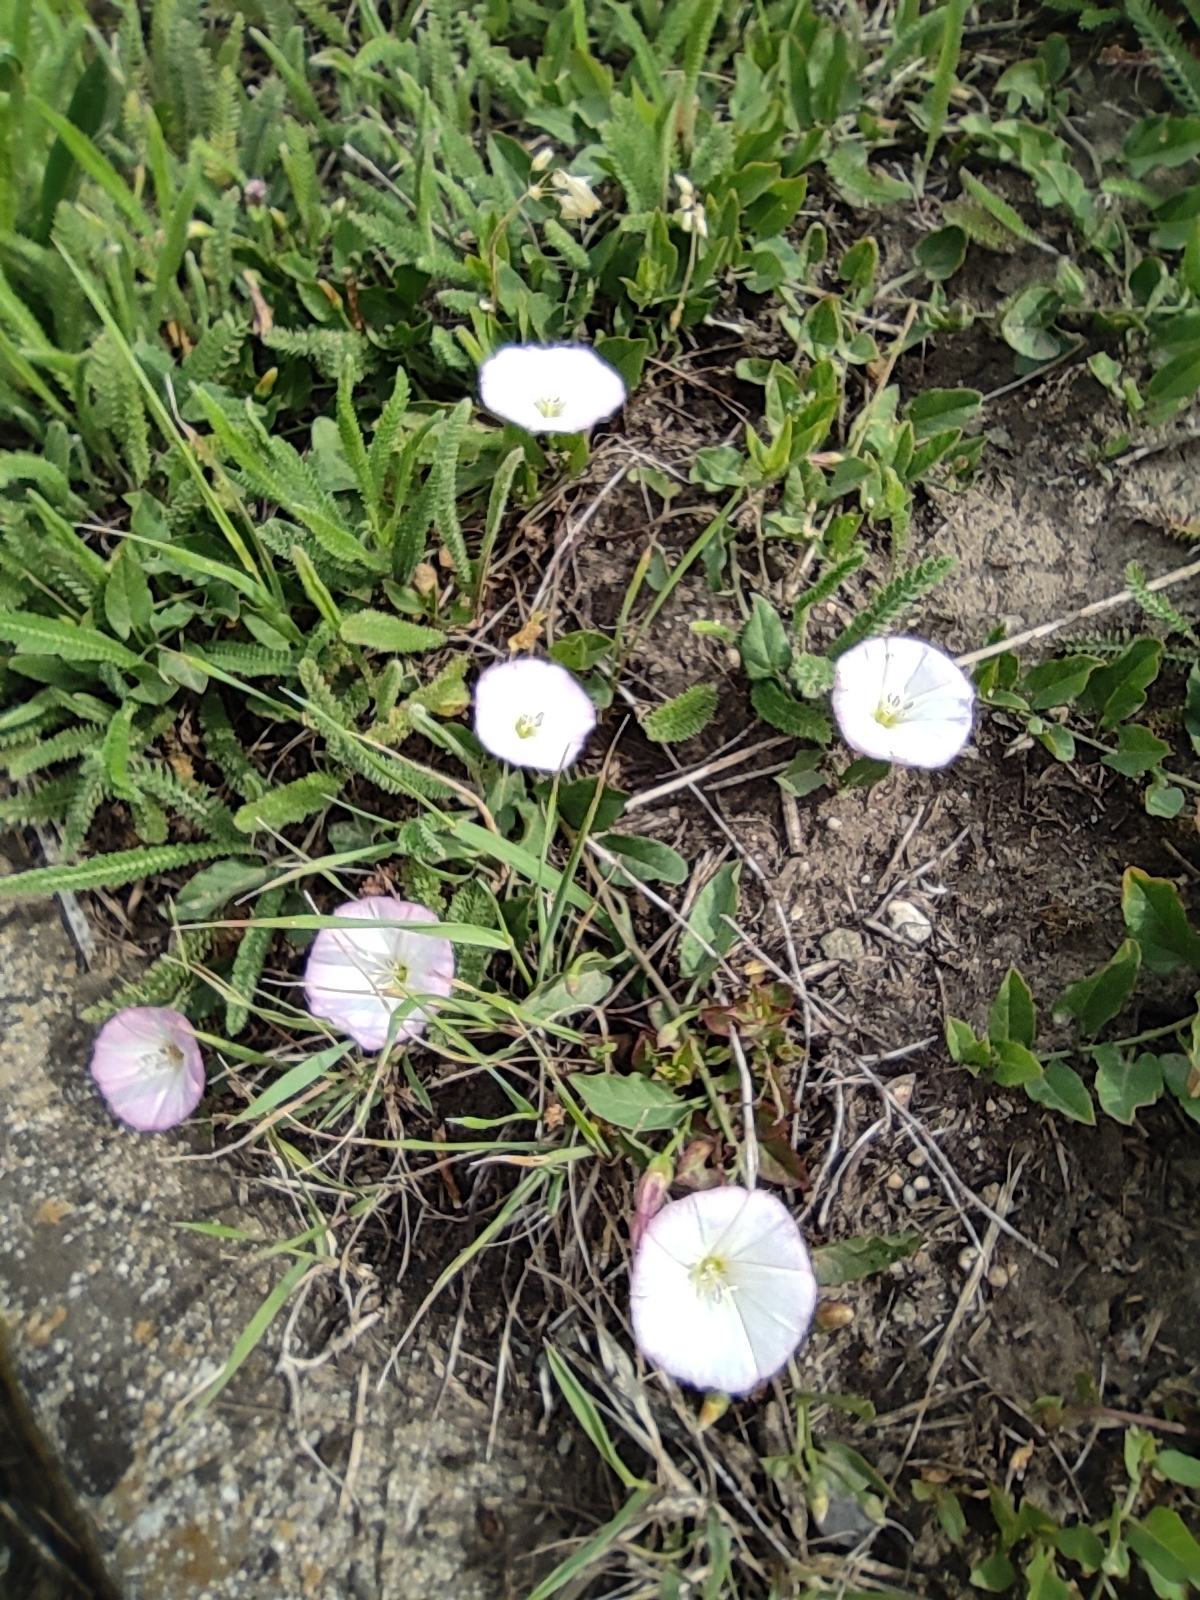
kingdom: Plantae
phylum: Tracheophyta
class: Magnoliopsida
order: Solanales
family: Convolvulaceae
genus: Convolvulus
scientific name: Convolvulus arvensis
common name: Field bindweed
